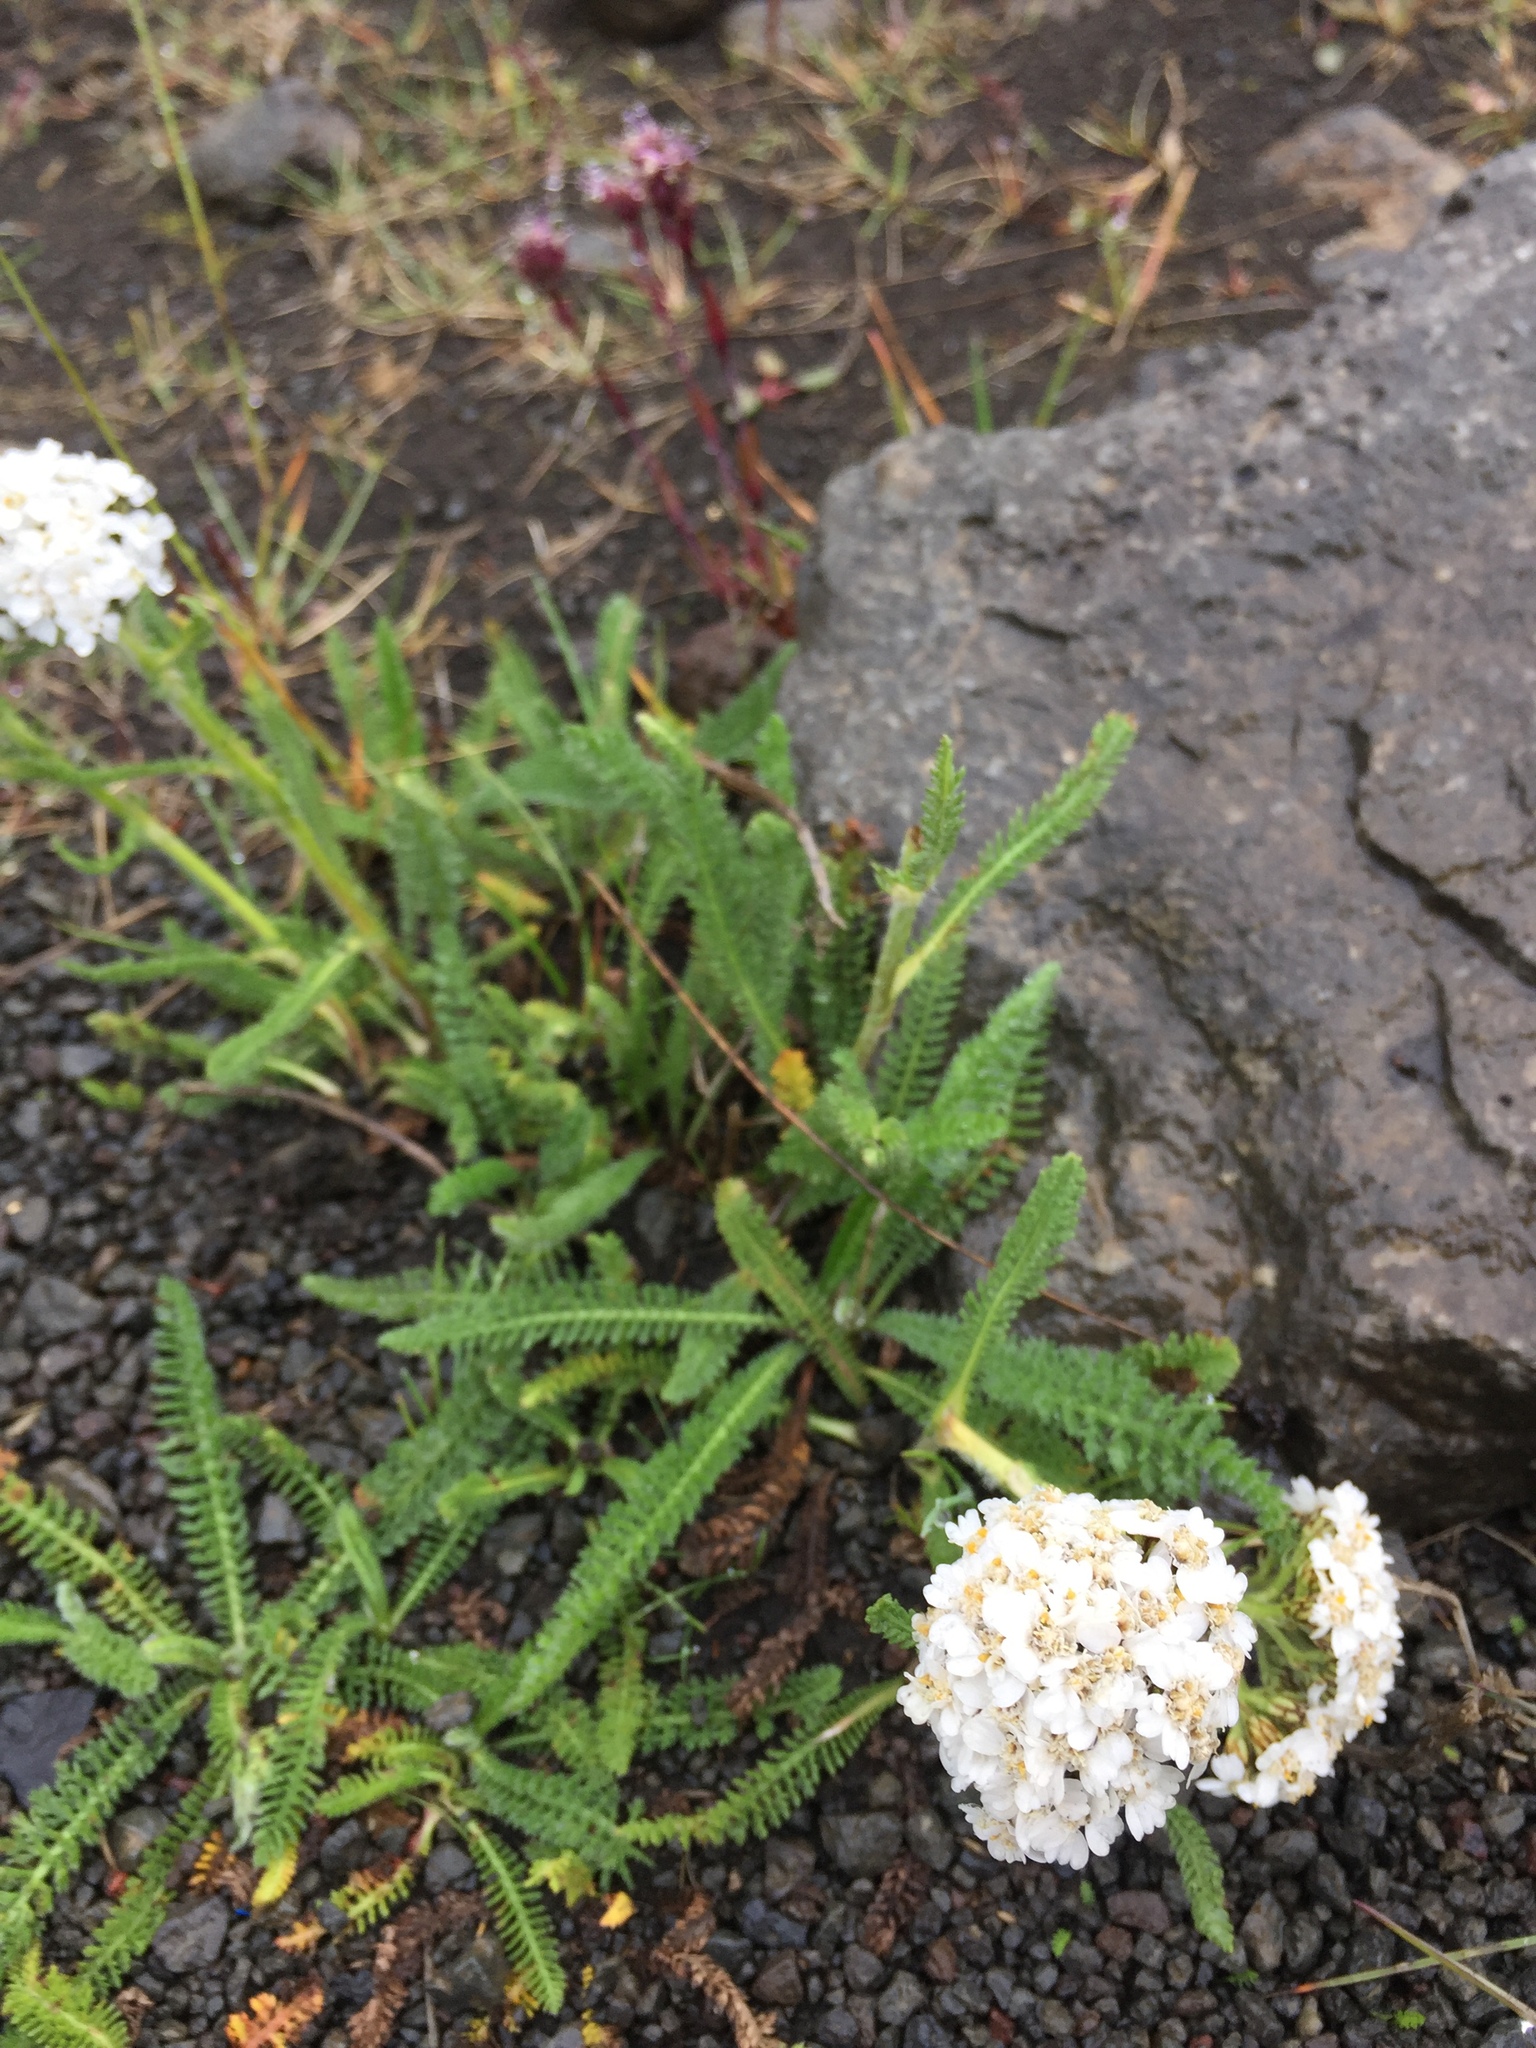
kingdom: Plantae
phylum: Tracheophyta
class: Magnoliopsida
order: Asterales
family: Asteraceae
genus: Achillea
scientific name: Achillea millefolium
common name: Yarrow
